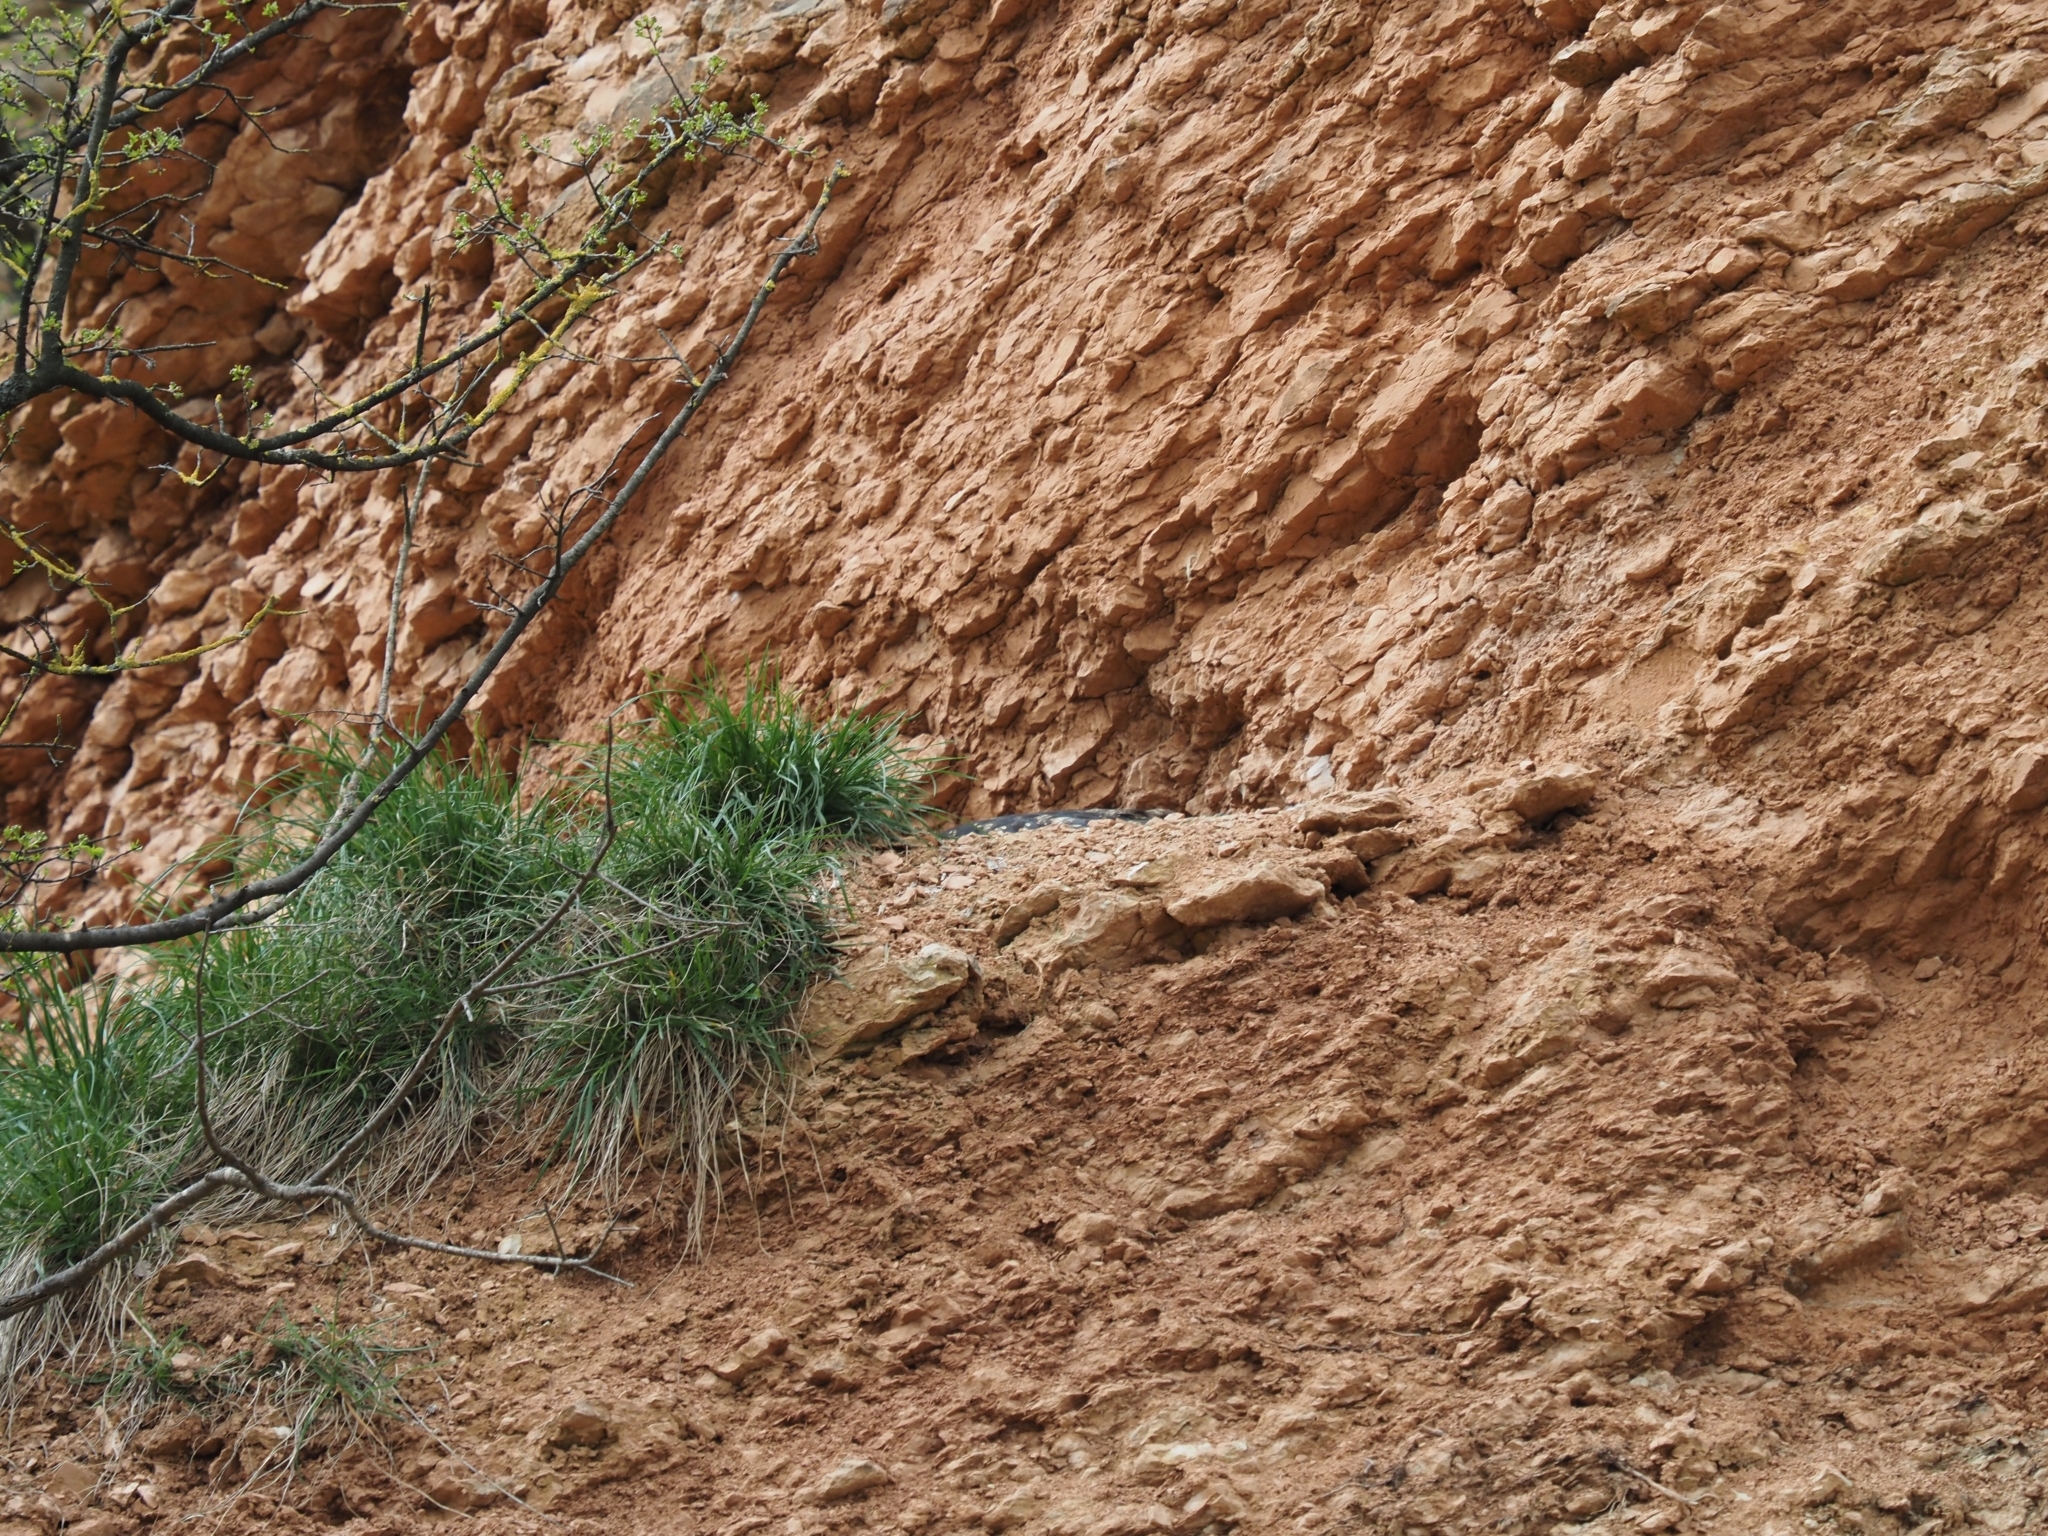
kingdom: Animalia
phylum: Chordata
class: Aves
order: Strigiformes
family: Strigidae
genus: Bubo
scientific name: Bubo bubo
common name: Eurasian eagle-owl
